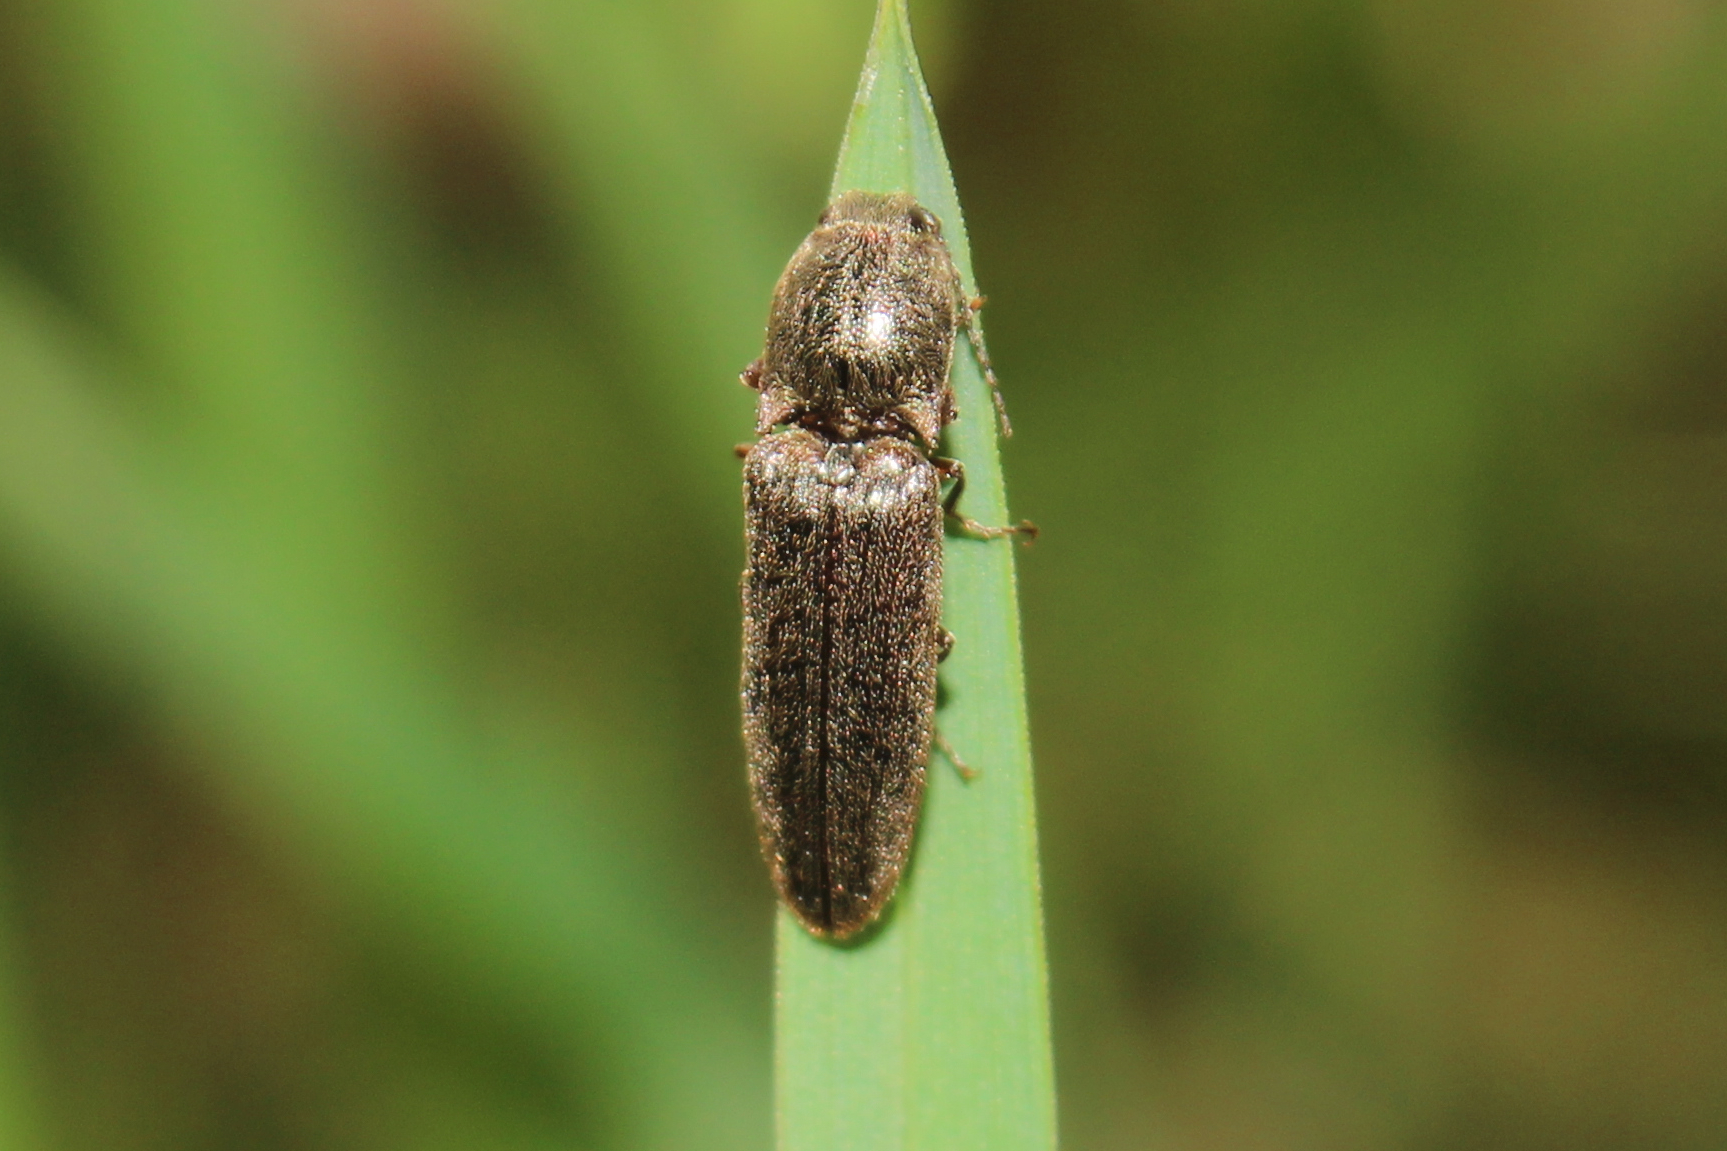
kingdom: Animalia
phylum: Arthropoda
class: Insecta
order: Coleoptera
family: Elateridae
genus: Gambrinus
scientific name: Gambrinus
